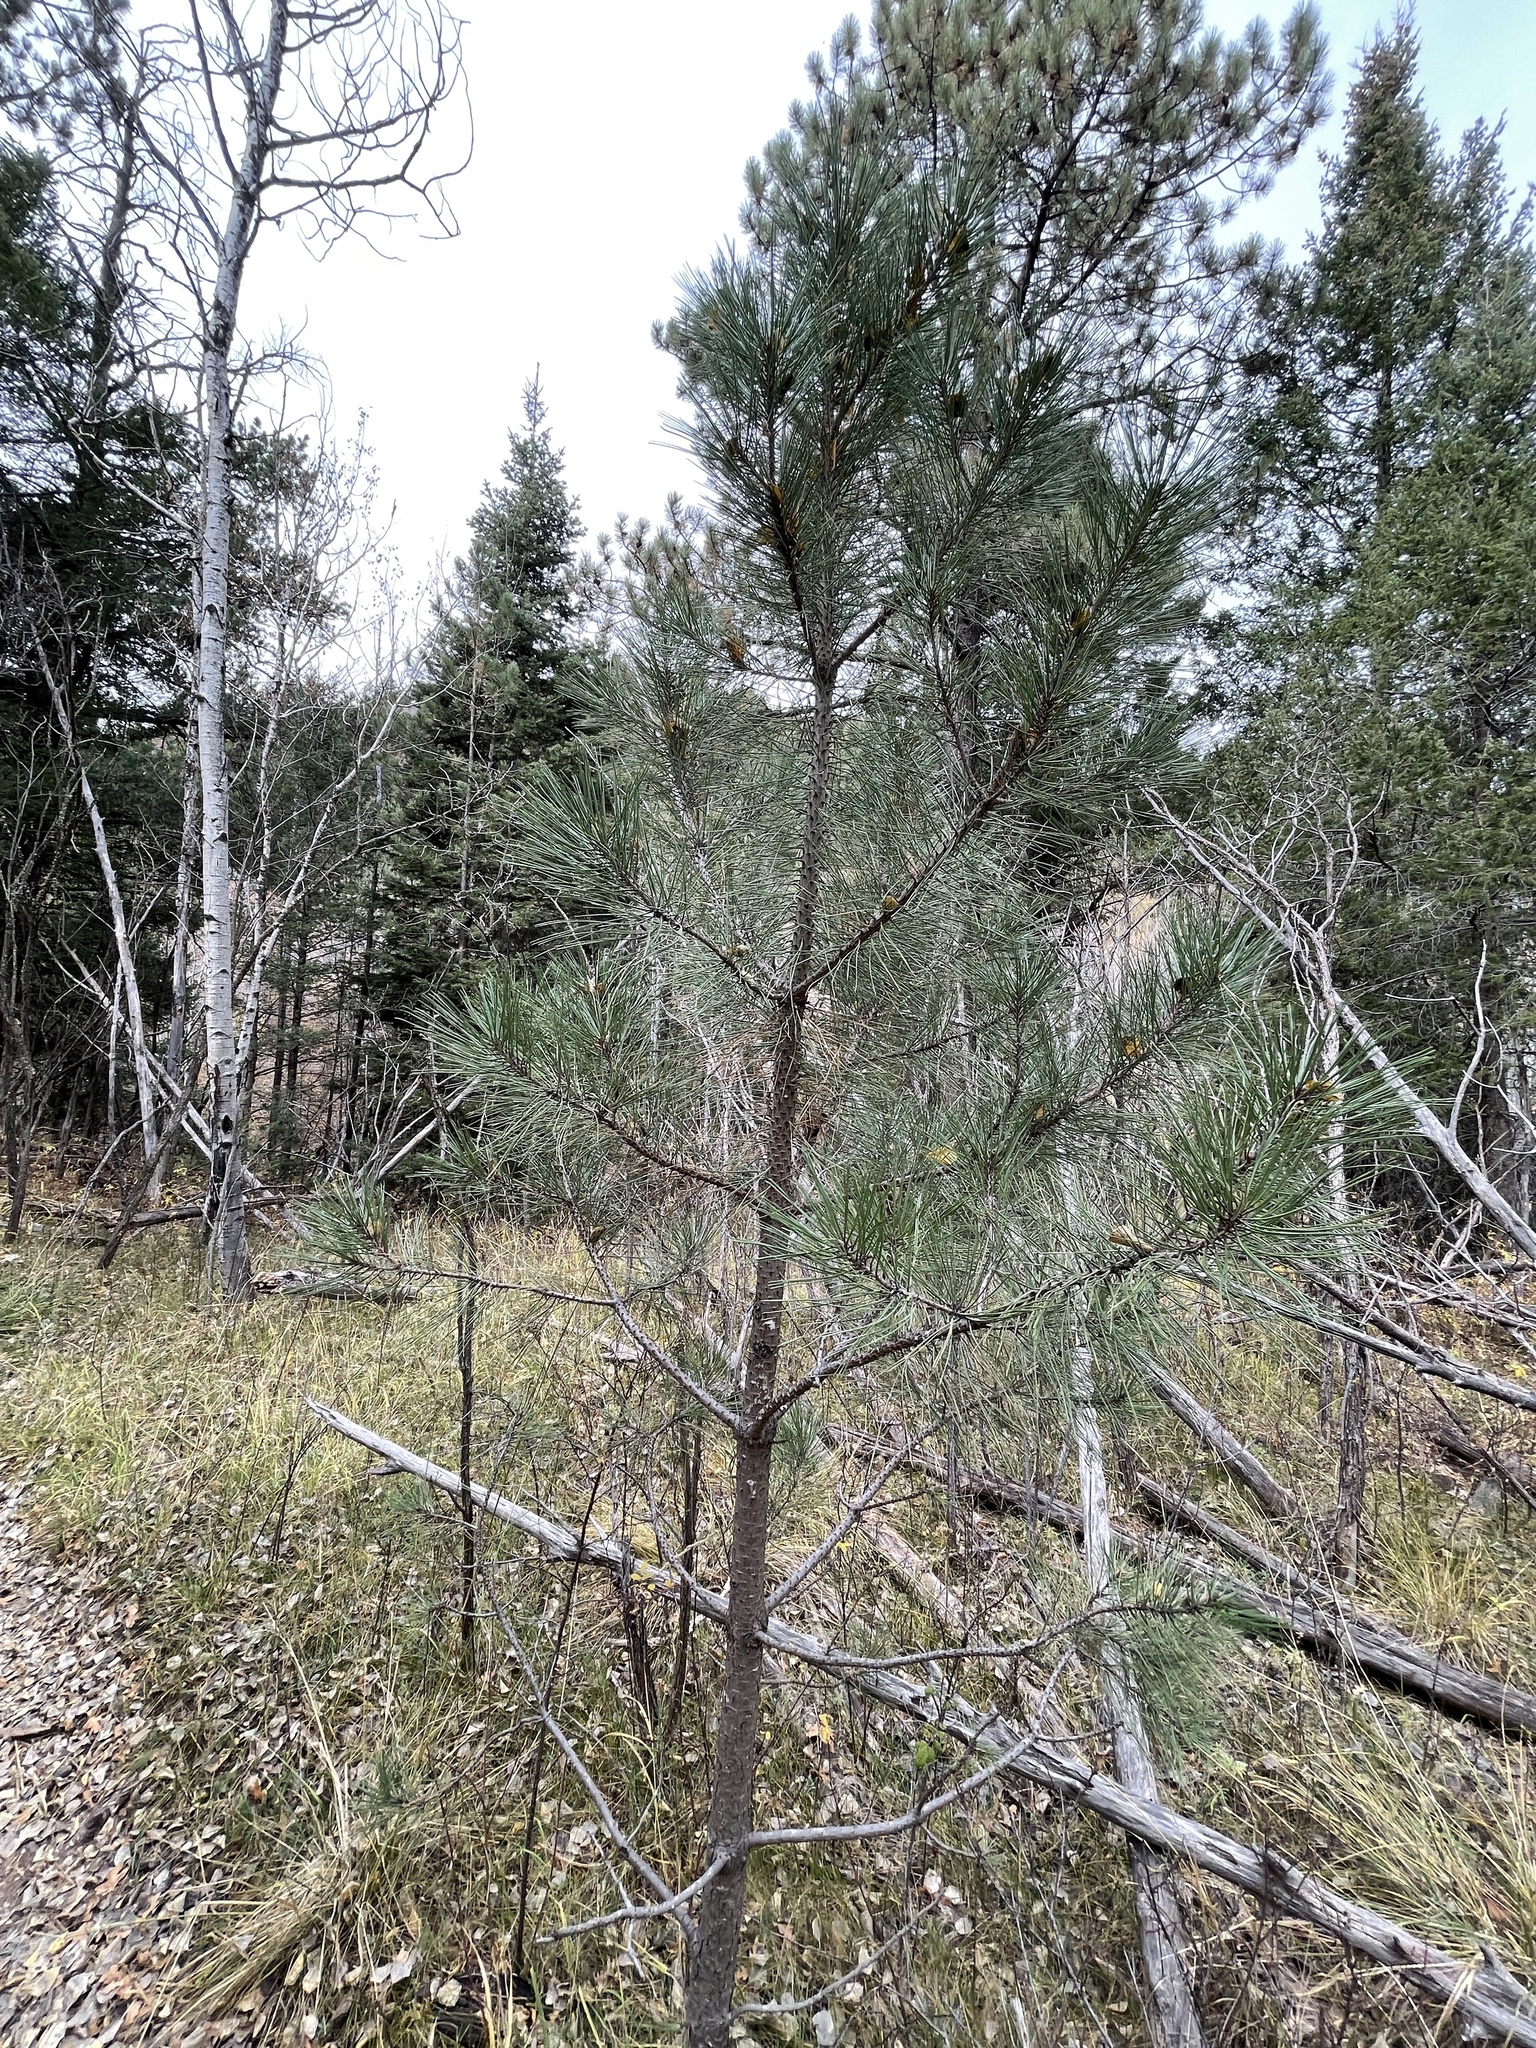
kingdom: Plantae
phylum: Tracheophyta
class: Pinopsida
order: Pinales
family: Pinaceae
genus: Pinus
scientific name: Pinus ponderosa
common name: Western yellow-pine
